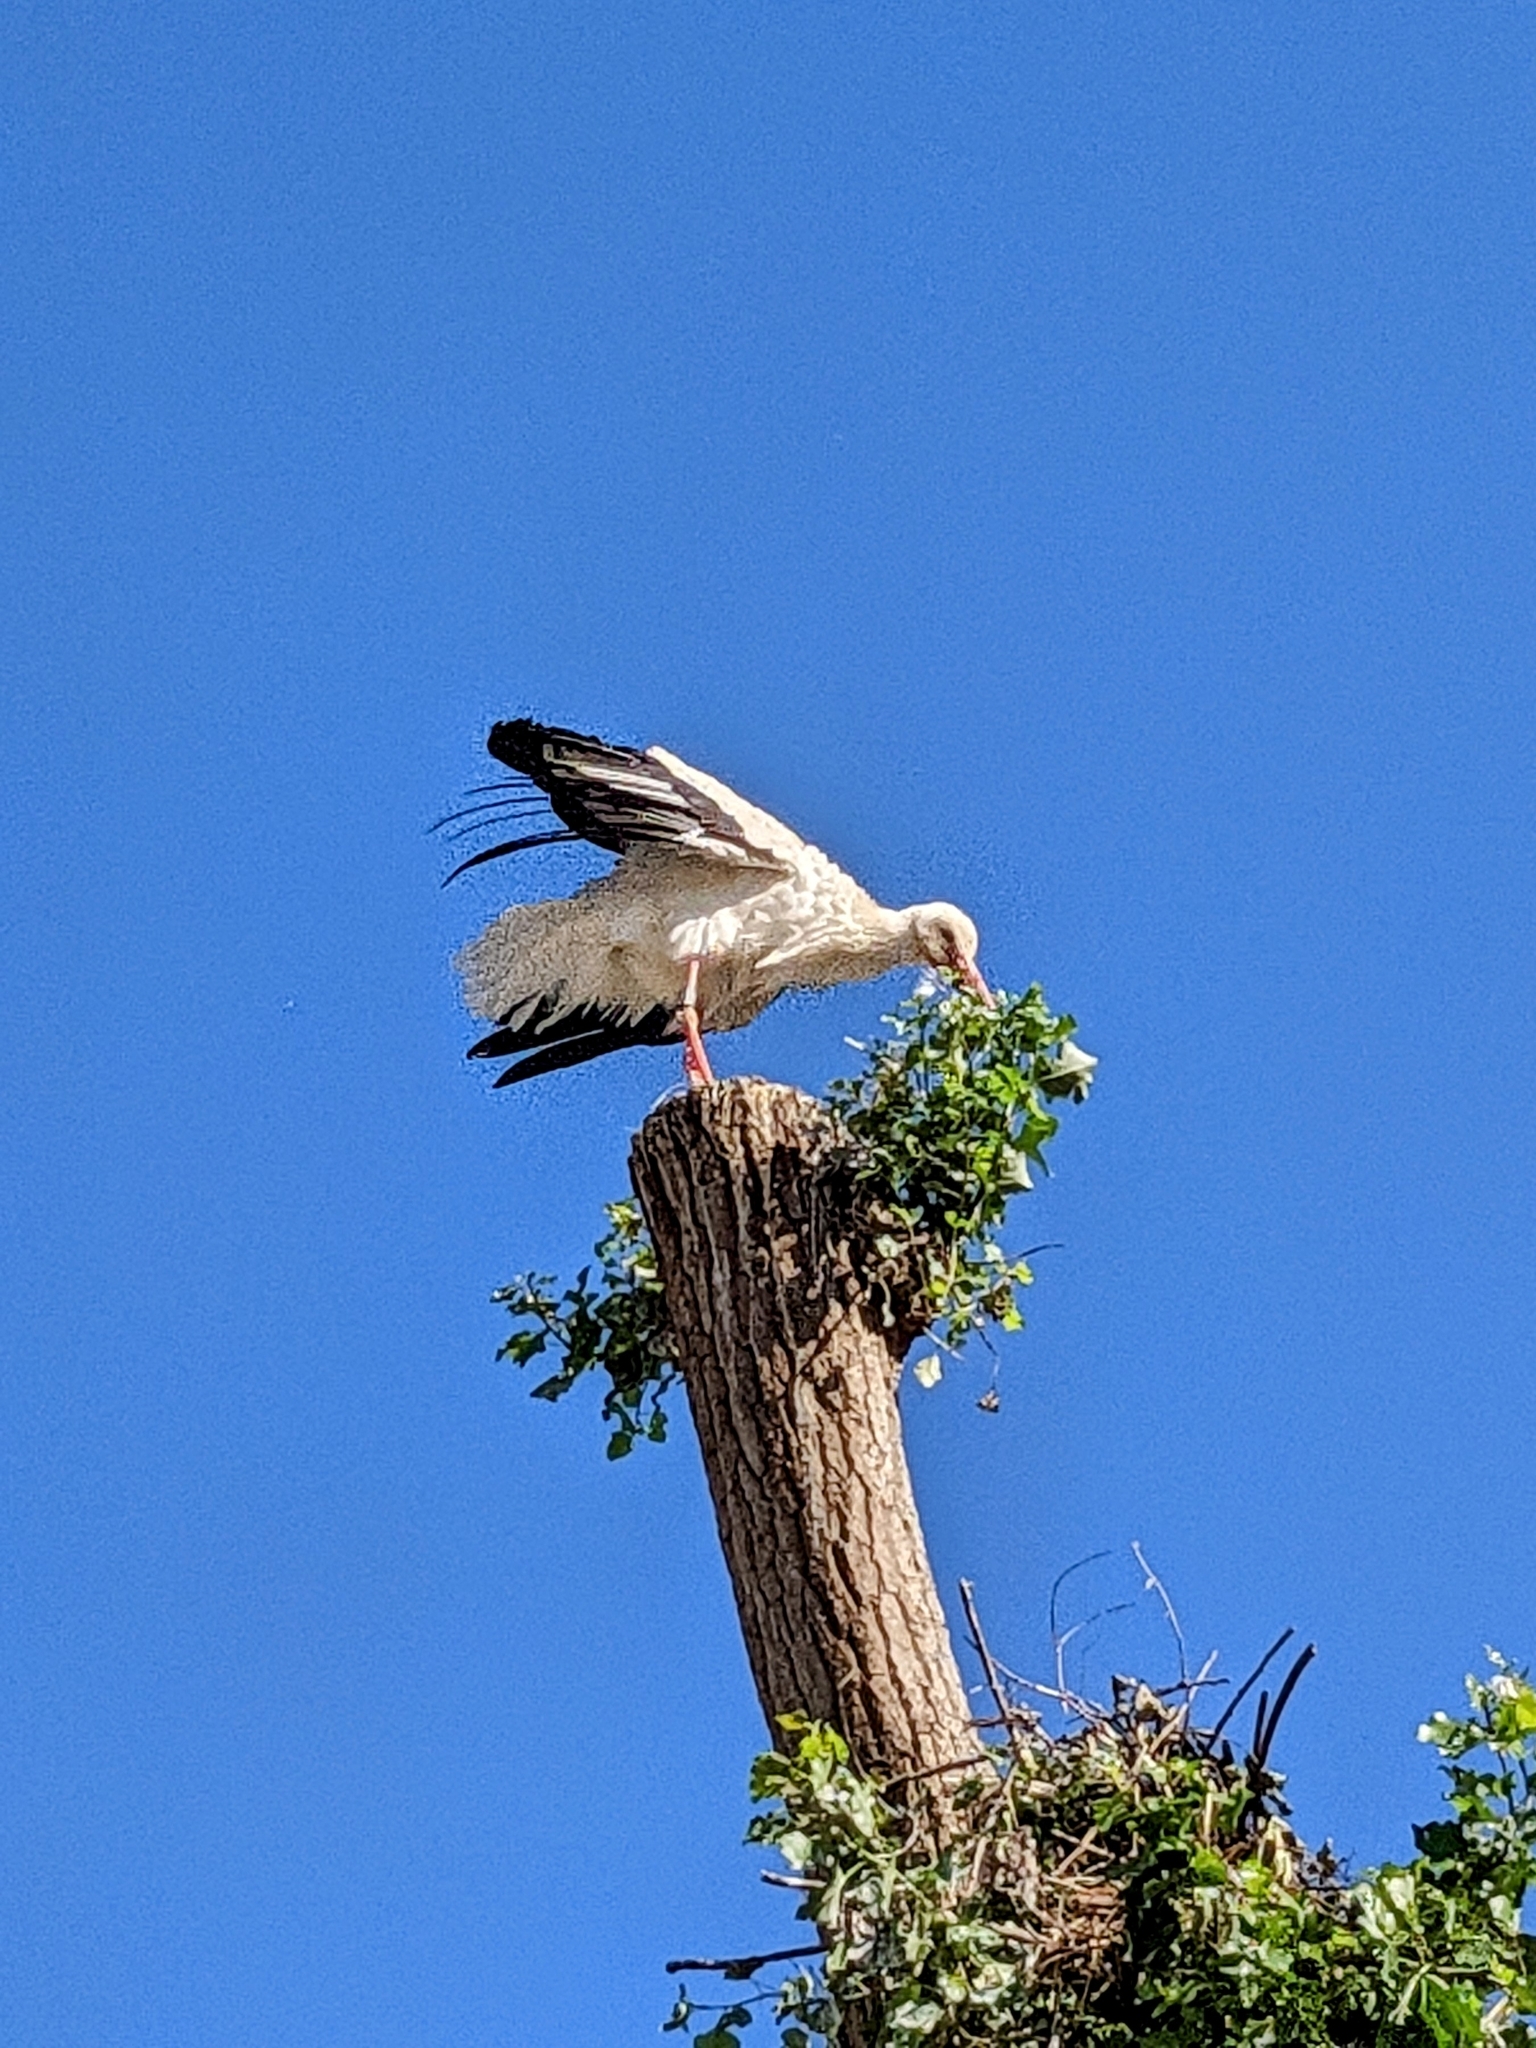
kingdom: Animalia
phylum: Chordata
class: Aves
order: Ciconiiformes
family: Ciconiidae
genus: Ciconia
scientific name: Ciconia ciconia
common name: White stork
